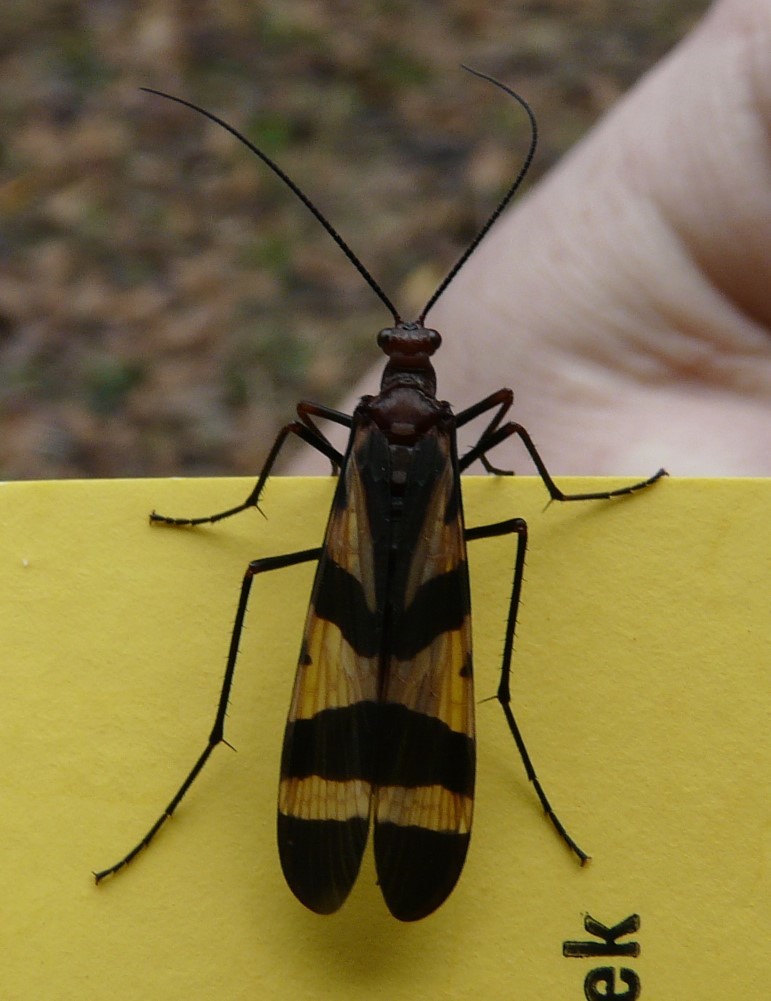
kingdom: Animalia
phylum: Arthropoda
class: Insecta
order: Mecoptera
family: Panorpidae
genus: Panorpa
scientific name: Panorpa nuptialis
